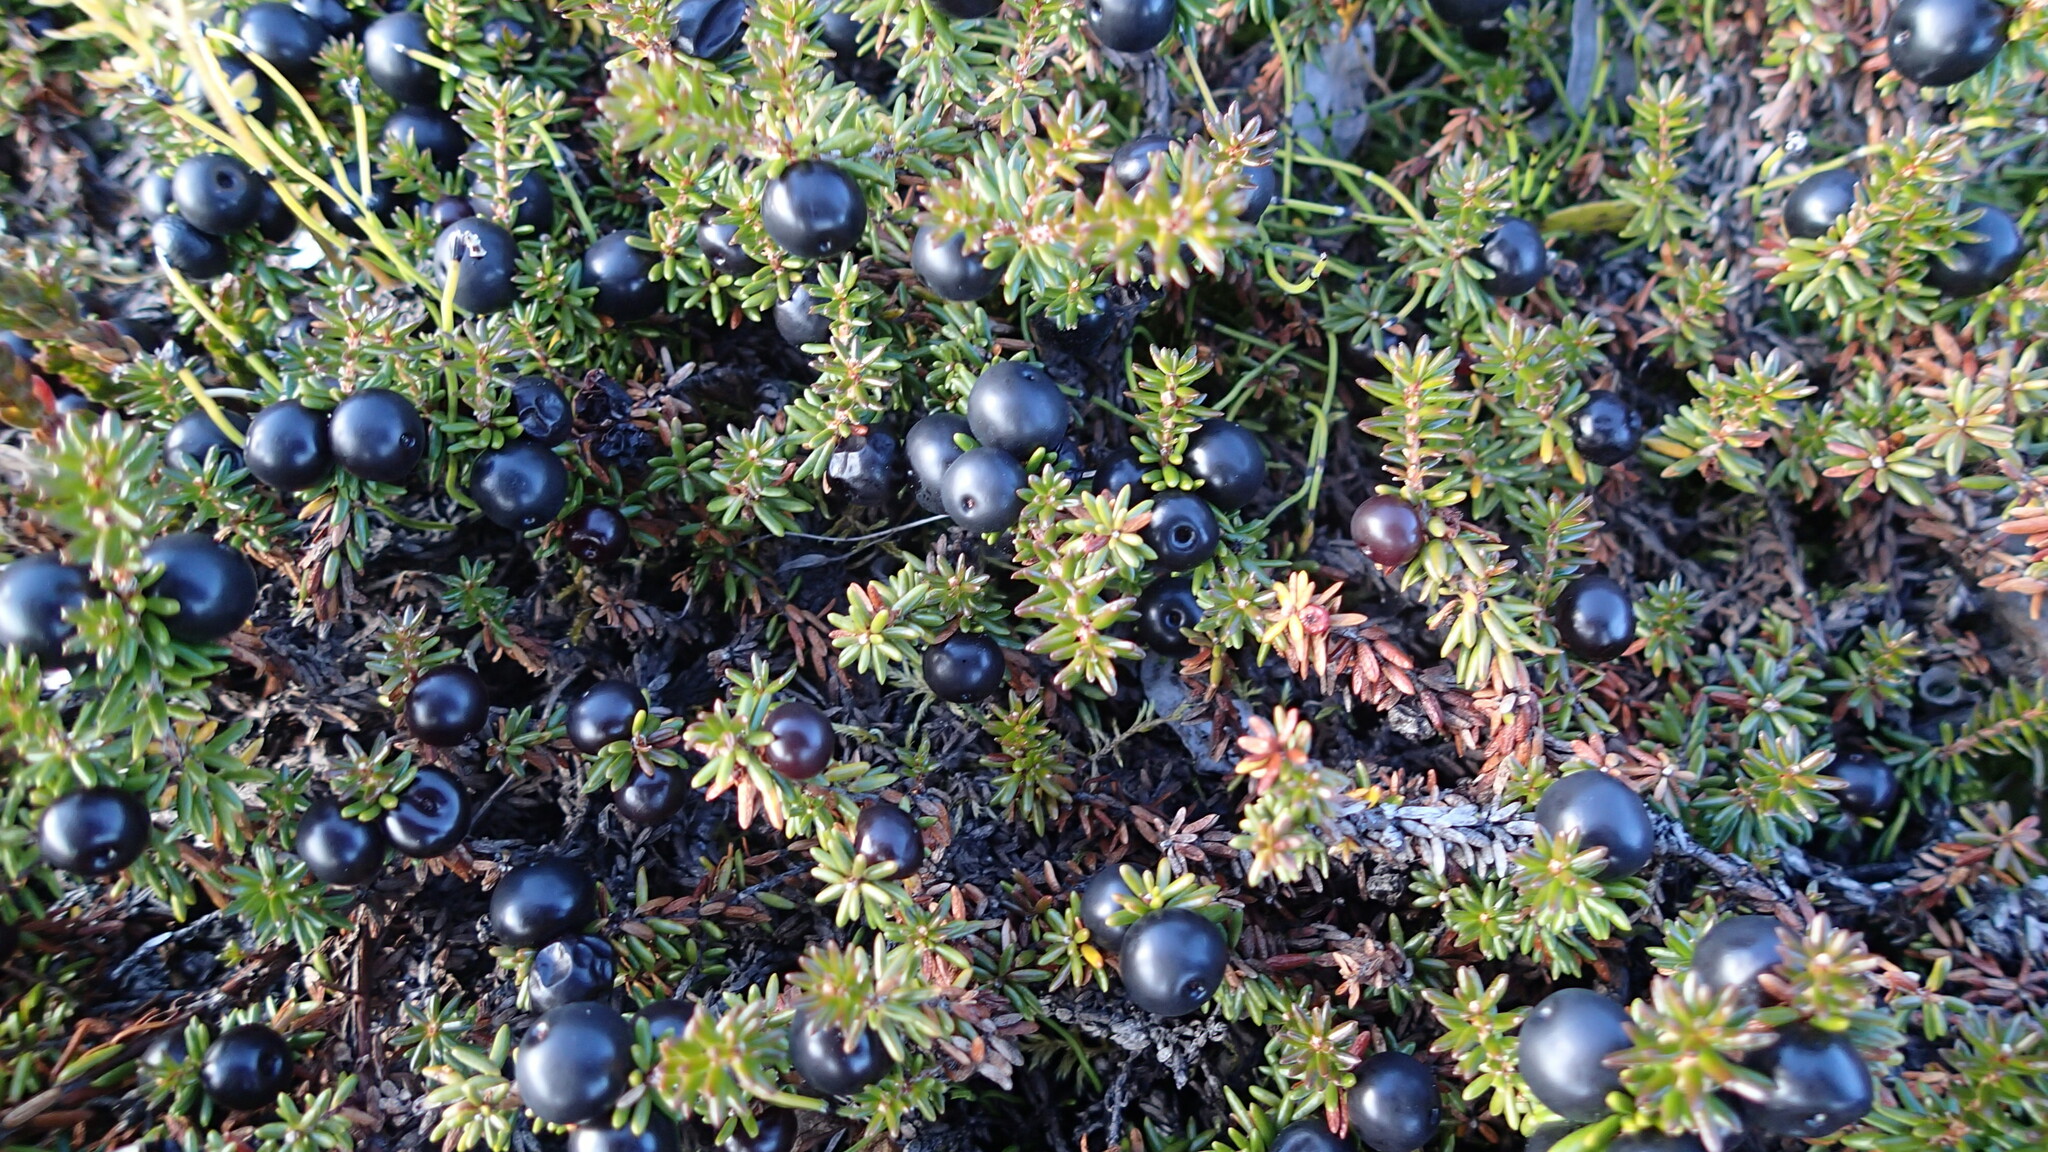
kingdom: Plantae
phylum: Tracheophyta
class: Magnoliopsida
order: Ericales
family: Ericaceae
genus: Empetrum
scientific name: Empetrum nigrum
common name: Black crowberry
